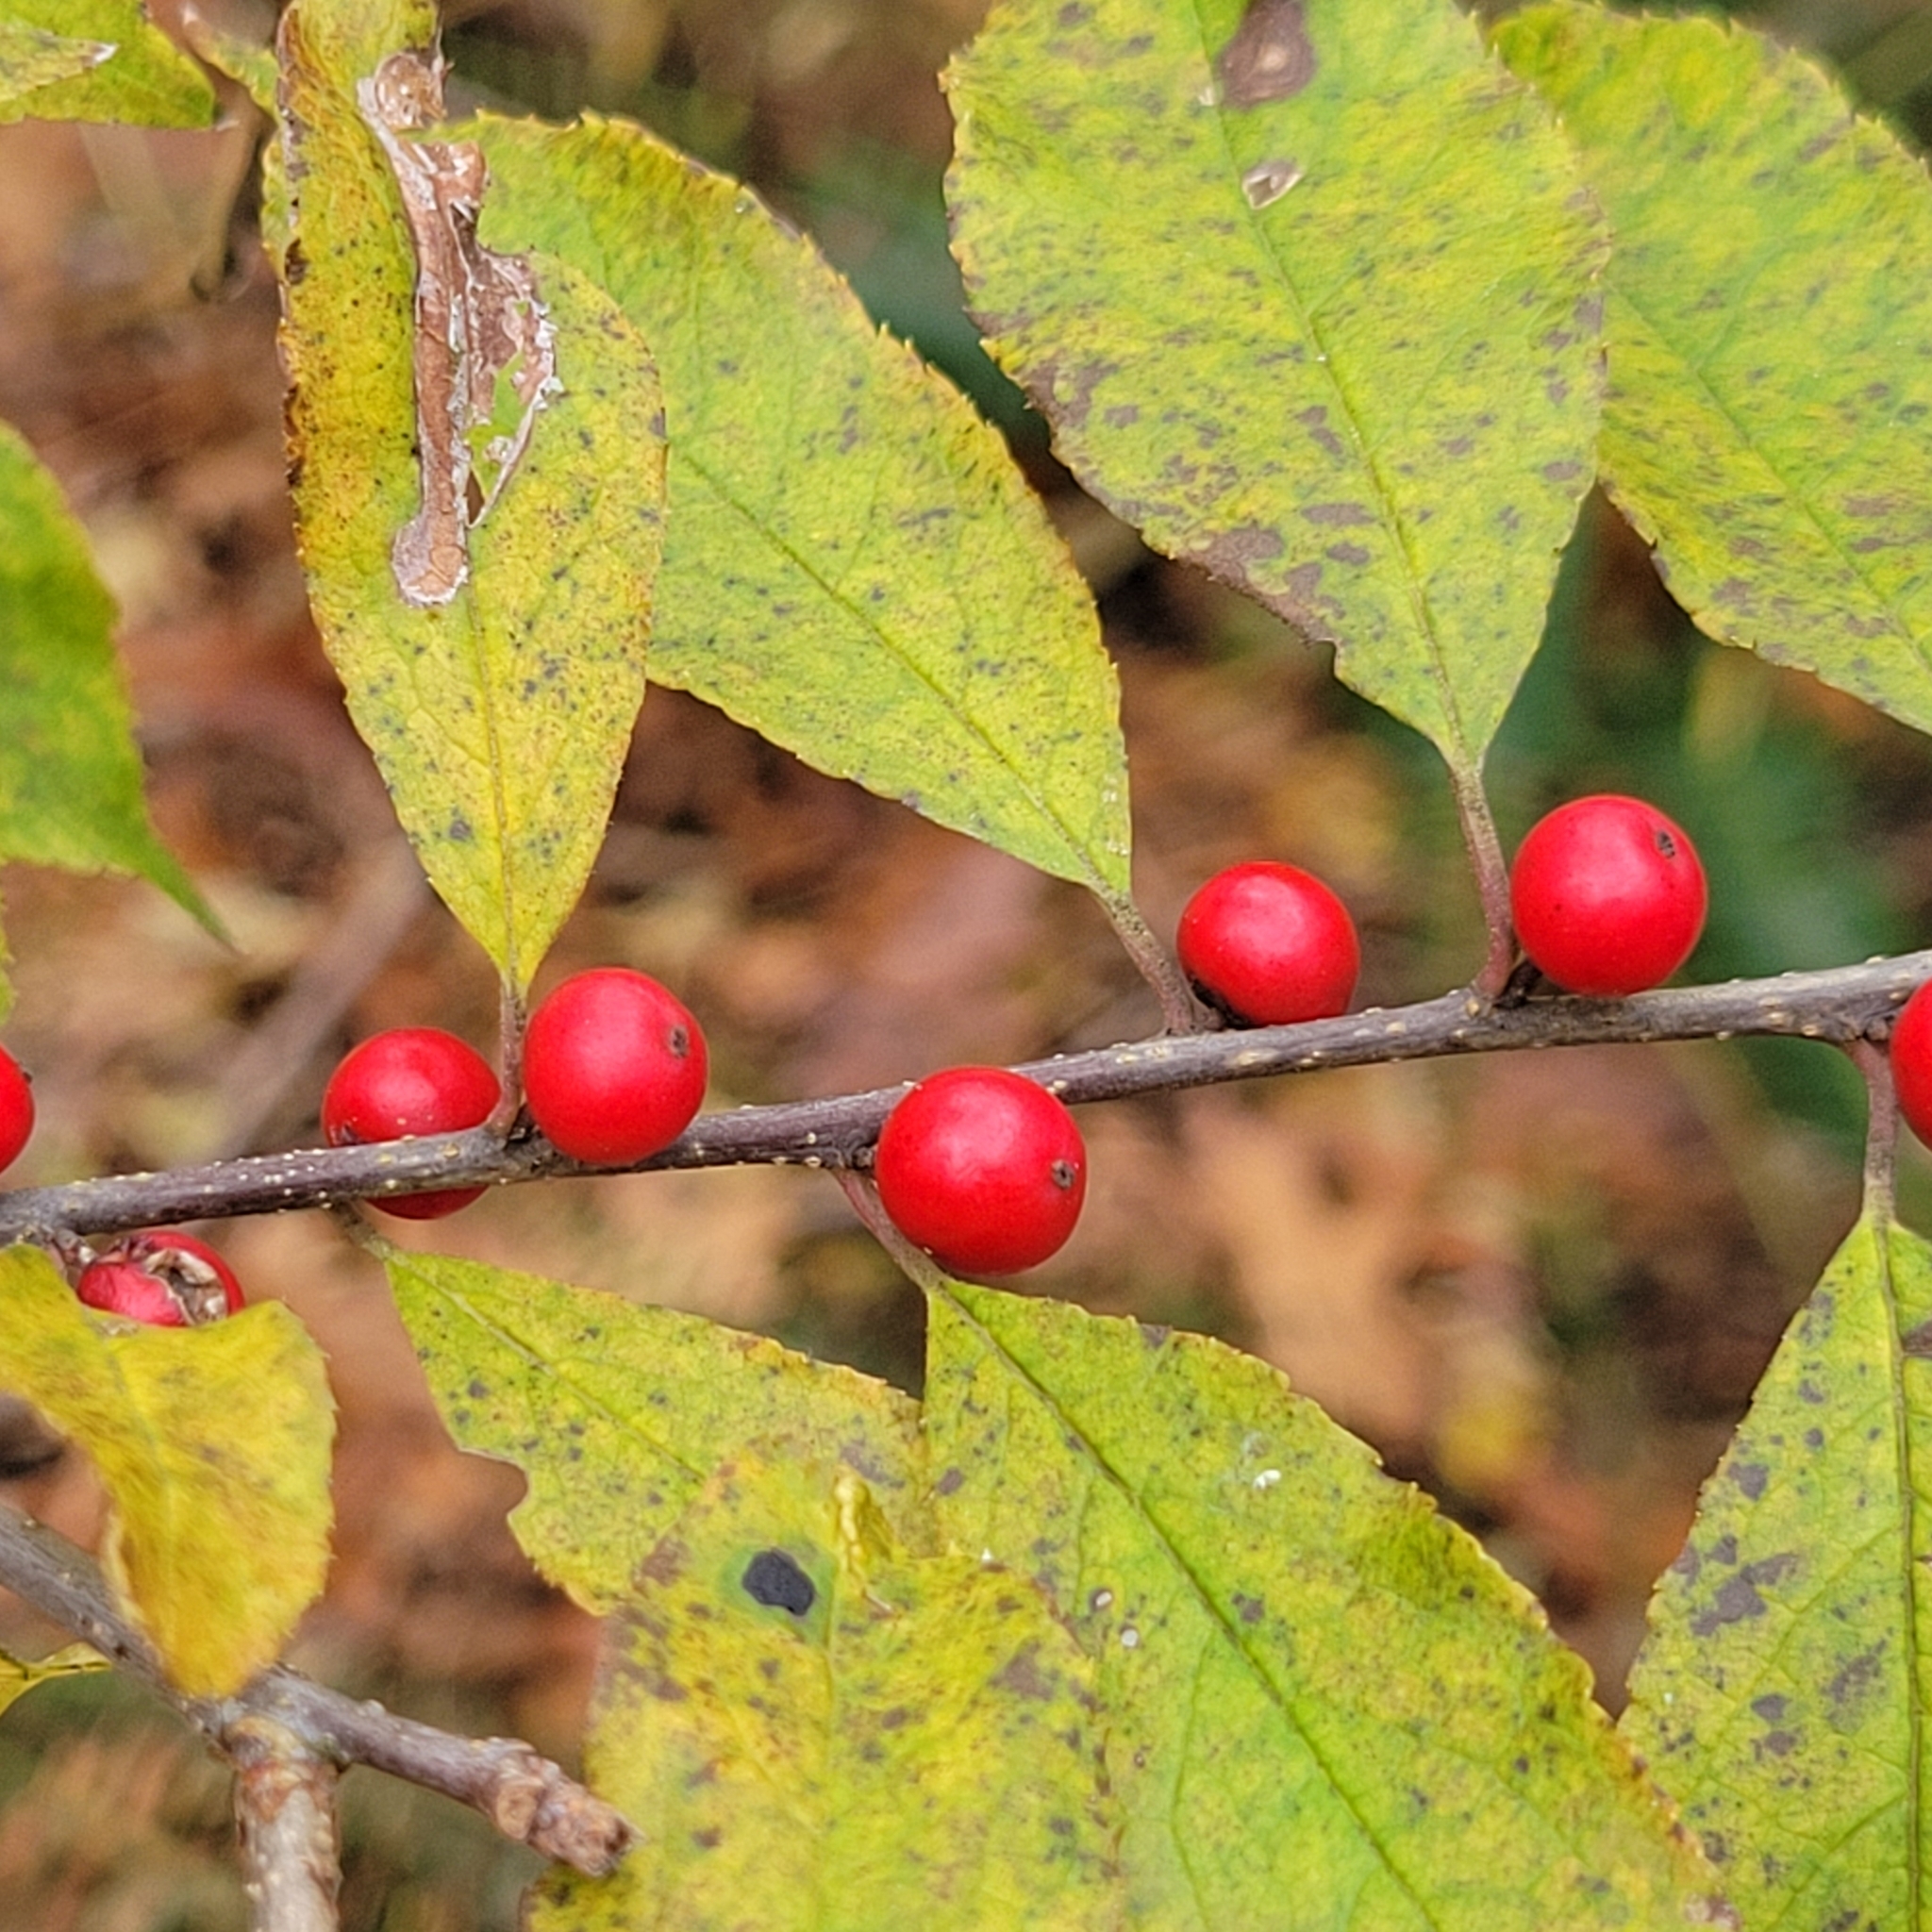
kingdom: Plantae
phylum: Tracheophyta
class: Magnoliopsida
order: Aquifoliales
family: Aquifoliaceae
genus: Ilex
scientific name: Ilex verticillata
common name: Virginia winterberry
